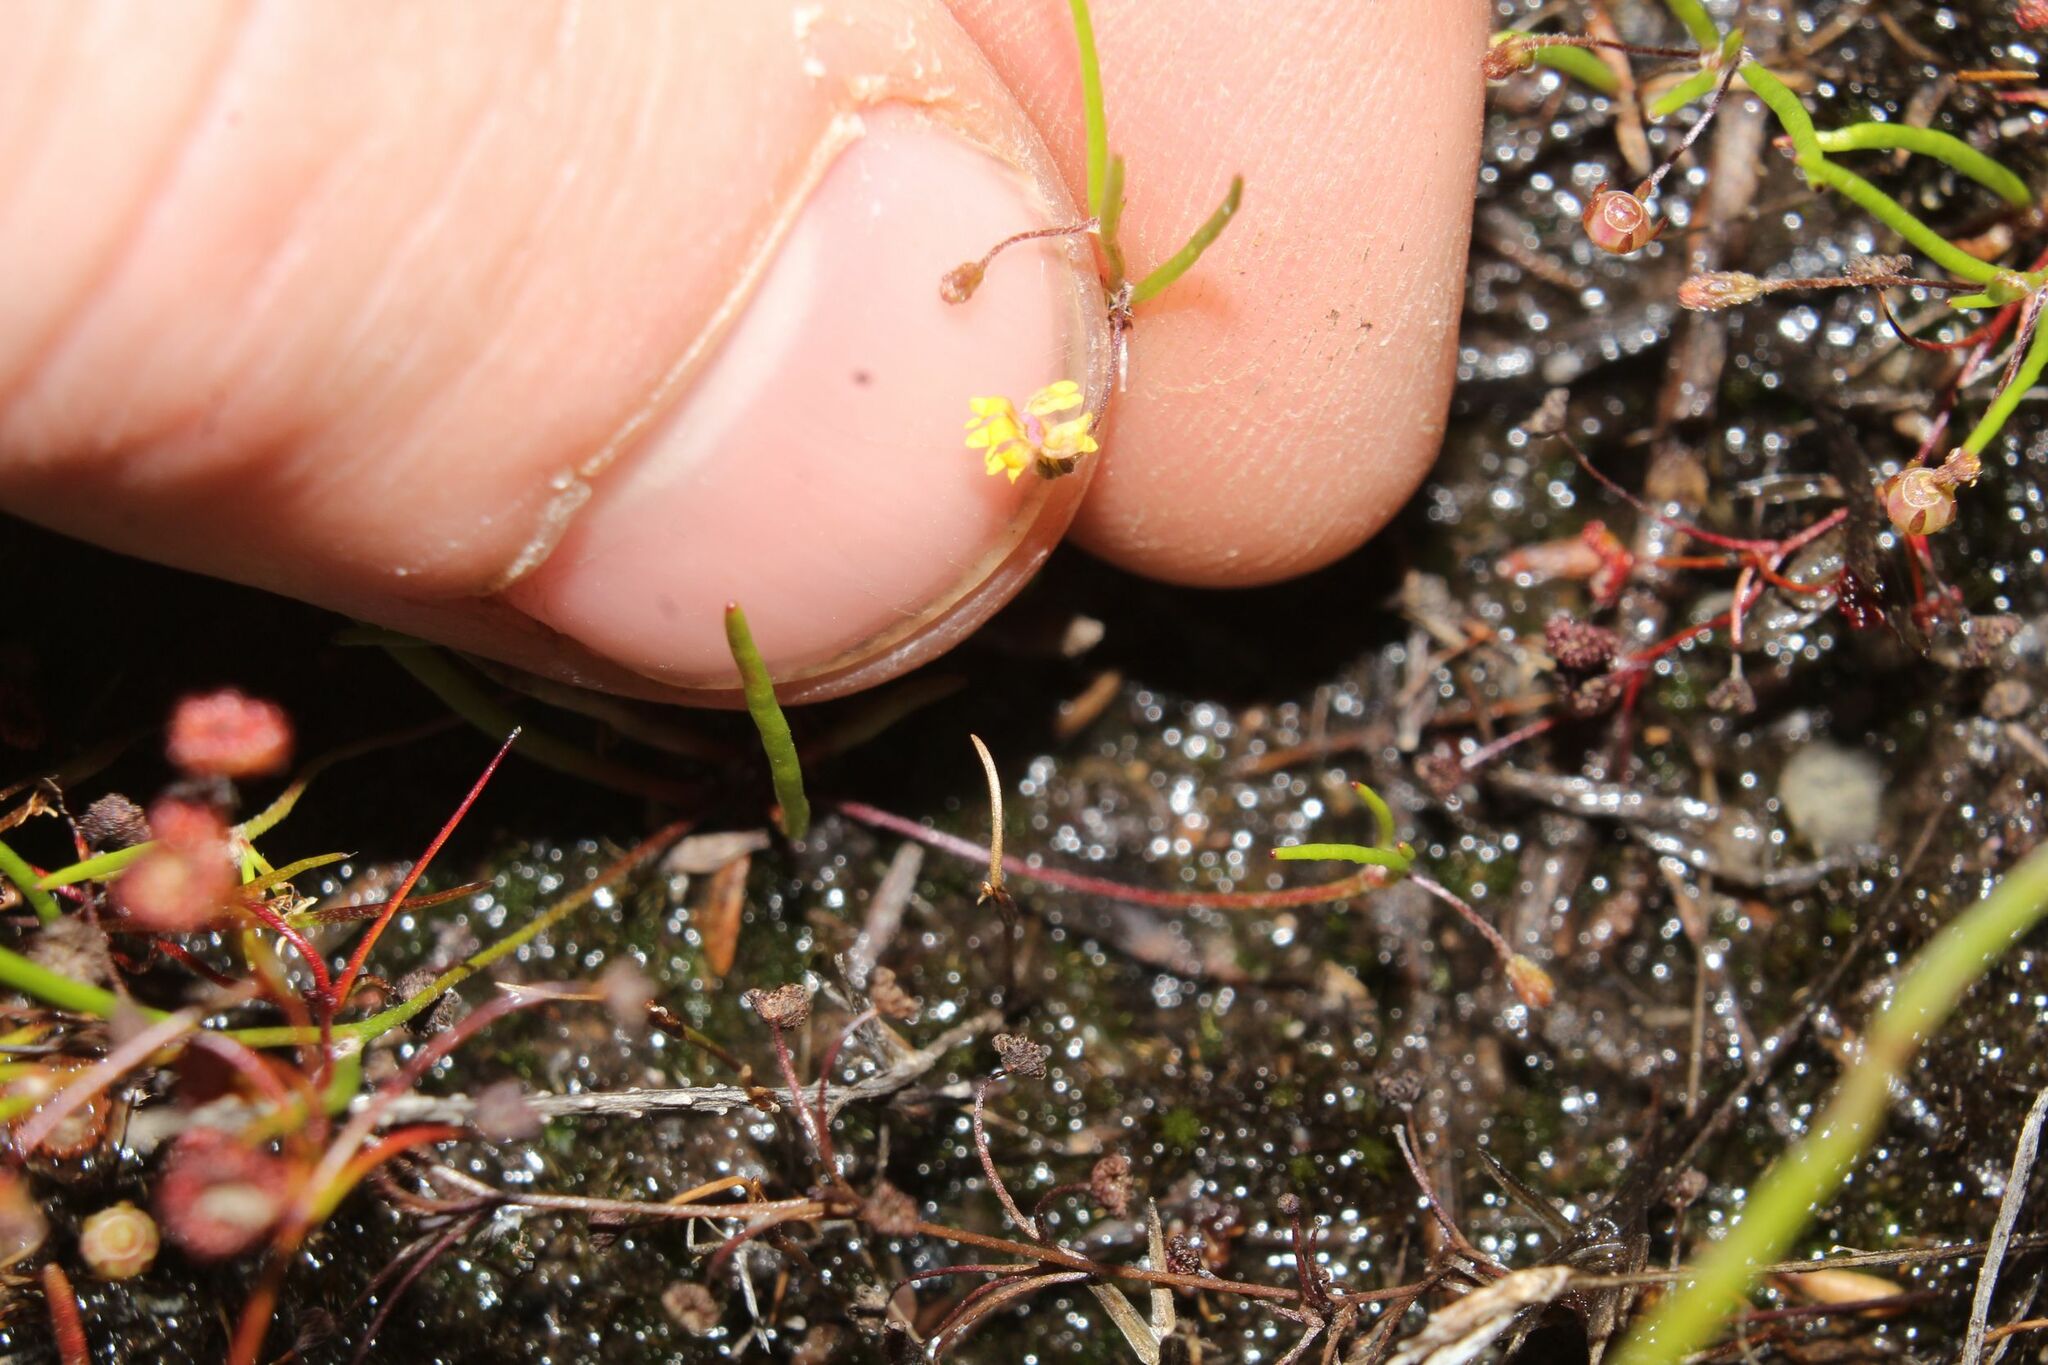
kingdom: Plantae
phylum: Tracheophyta
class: Magnoliopsida
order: Asterales
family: Goodeniaceae
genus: Goodenia
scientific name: Goodenia micrantha
